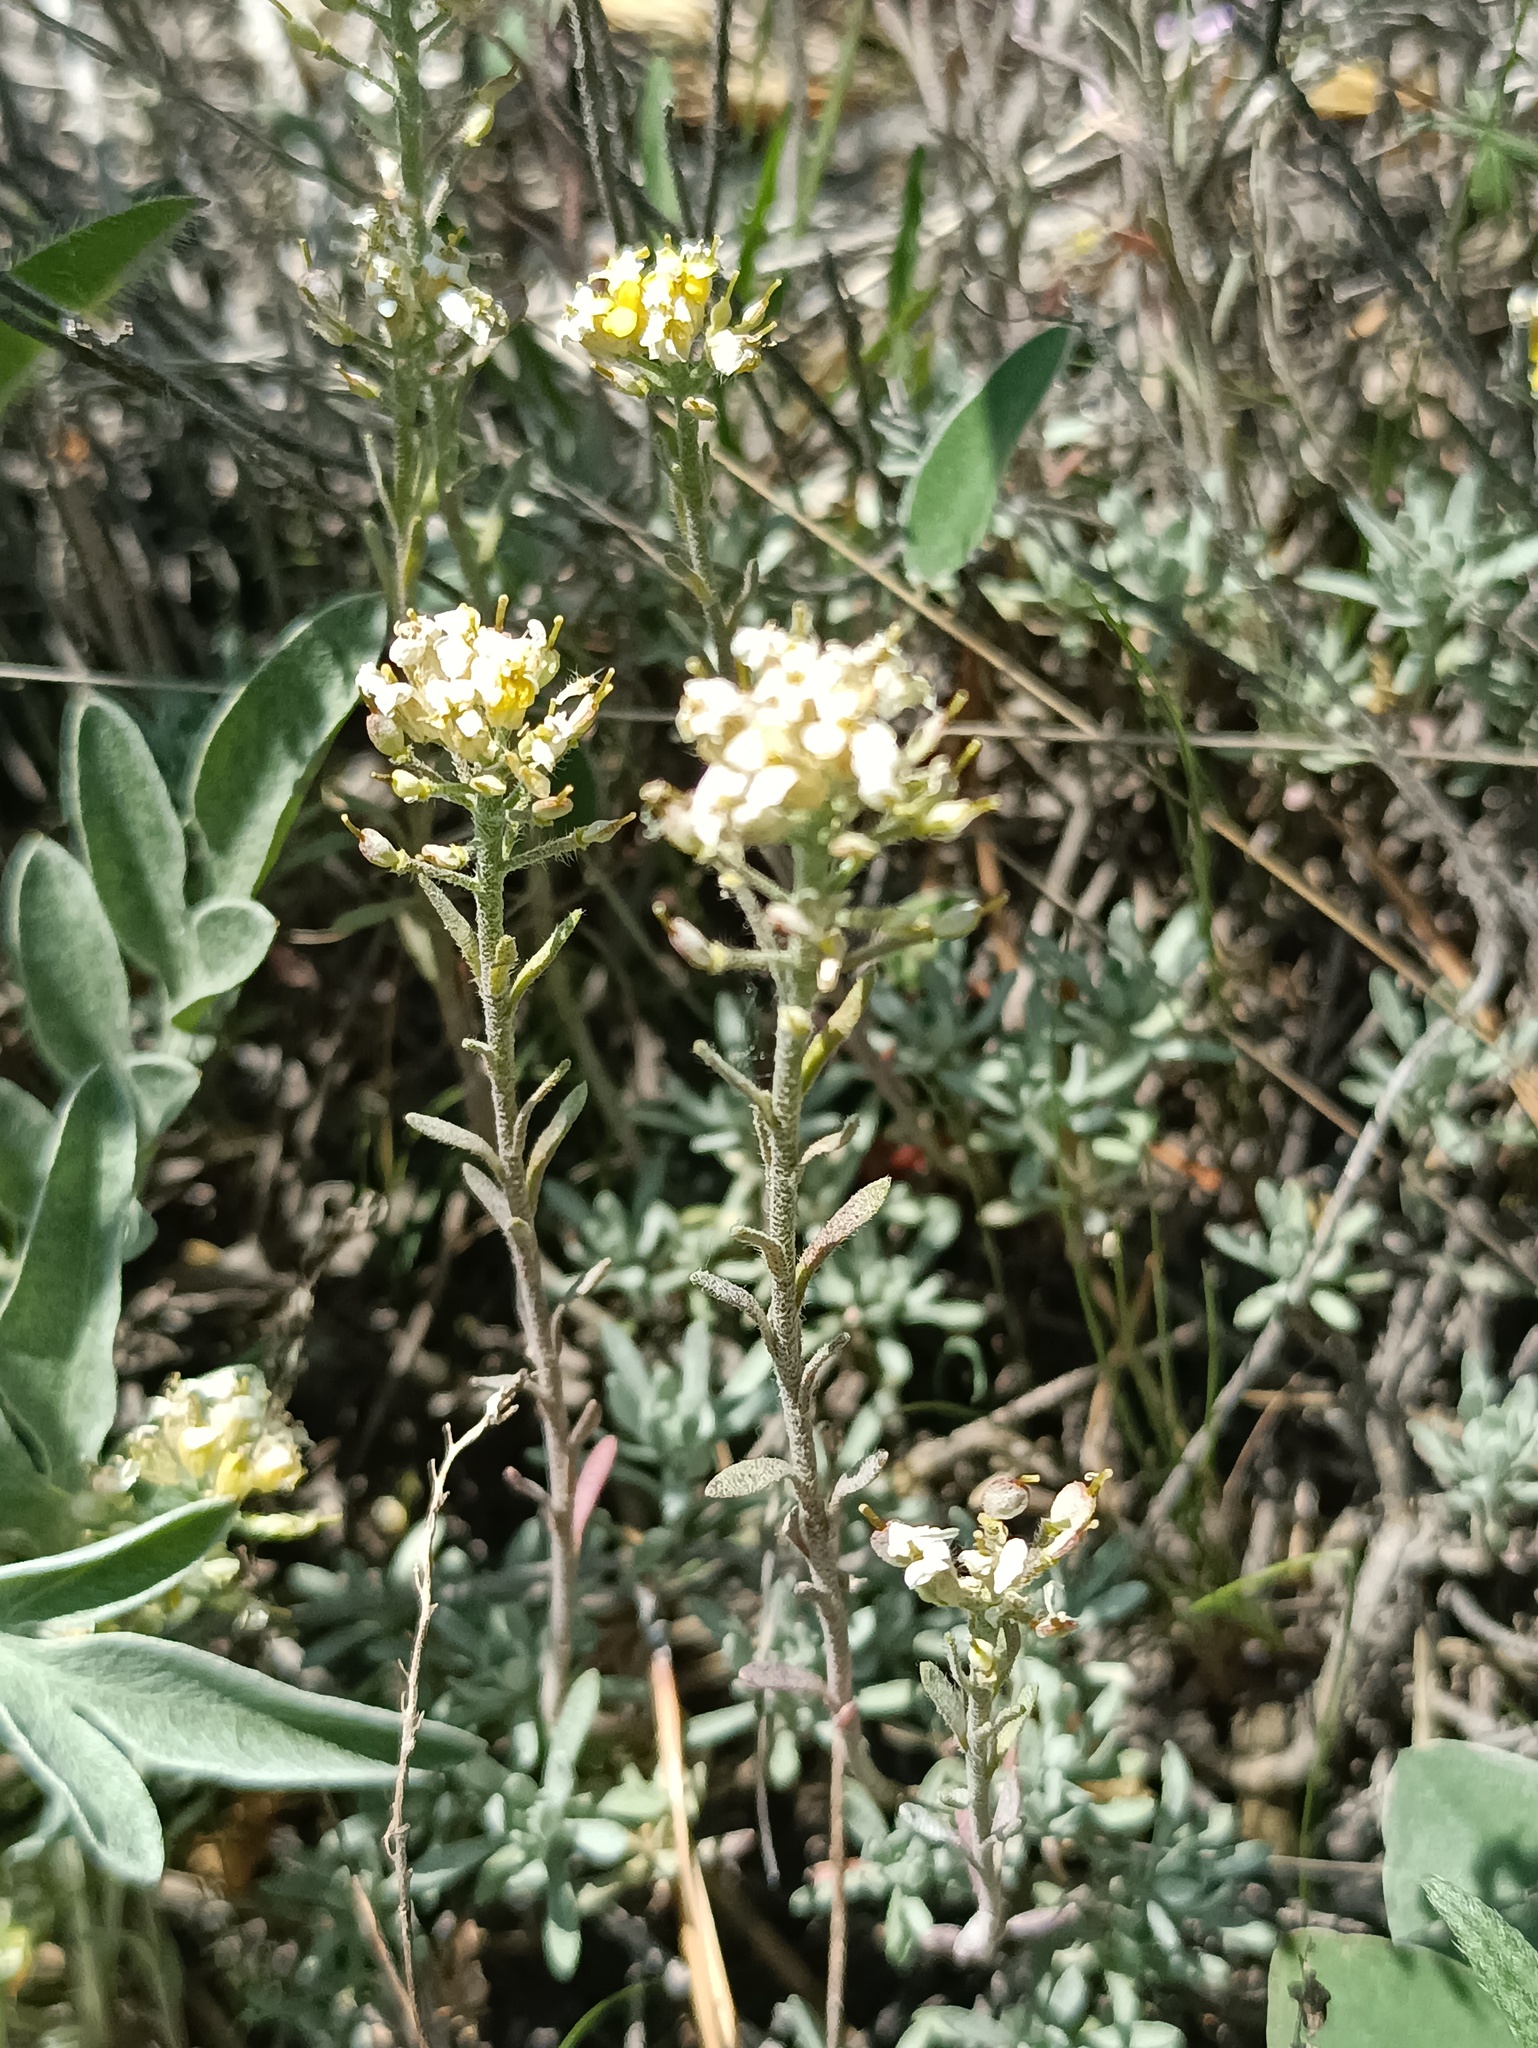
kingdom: Plantae
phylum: Tracheophyta
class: Magnoliopsida
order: Brassicales
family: Brassicaceae
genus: Alyssum
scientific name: Alyssum lenense
